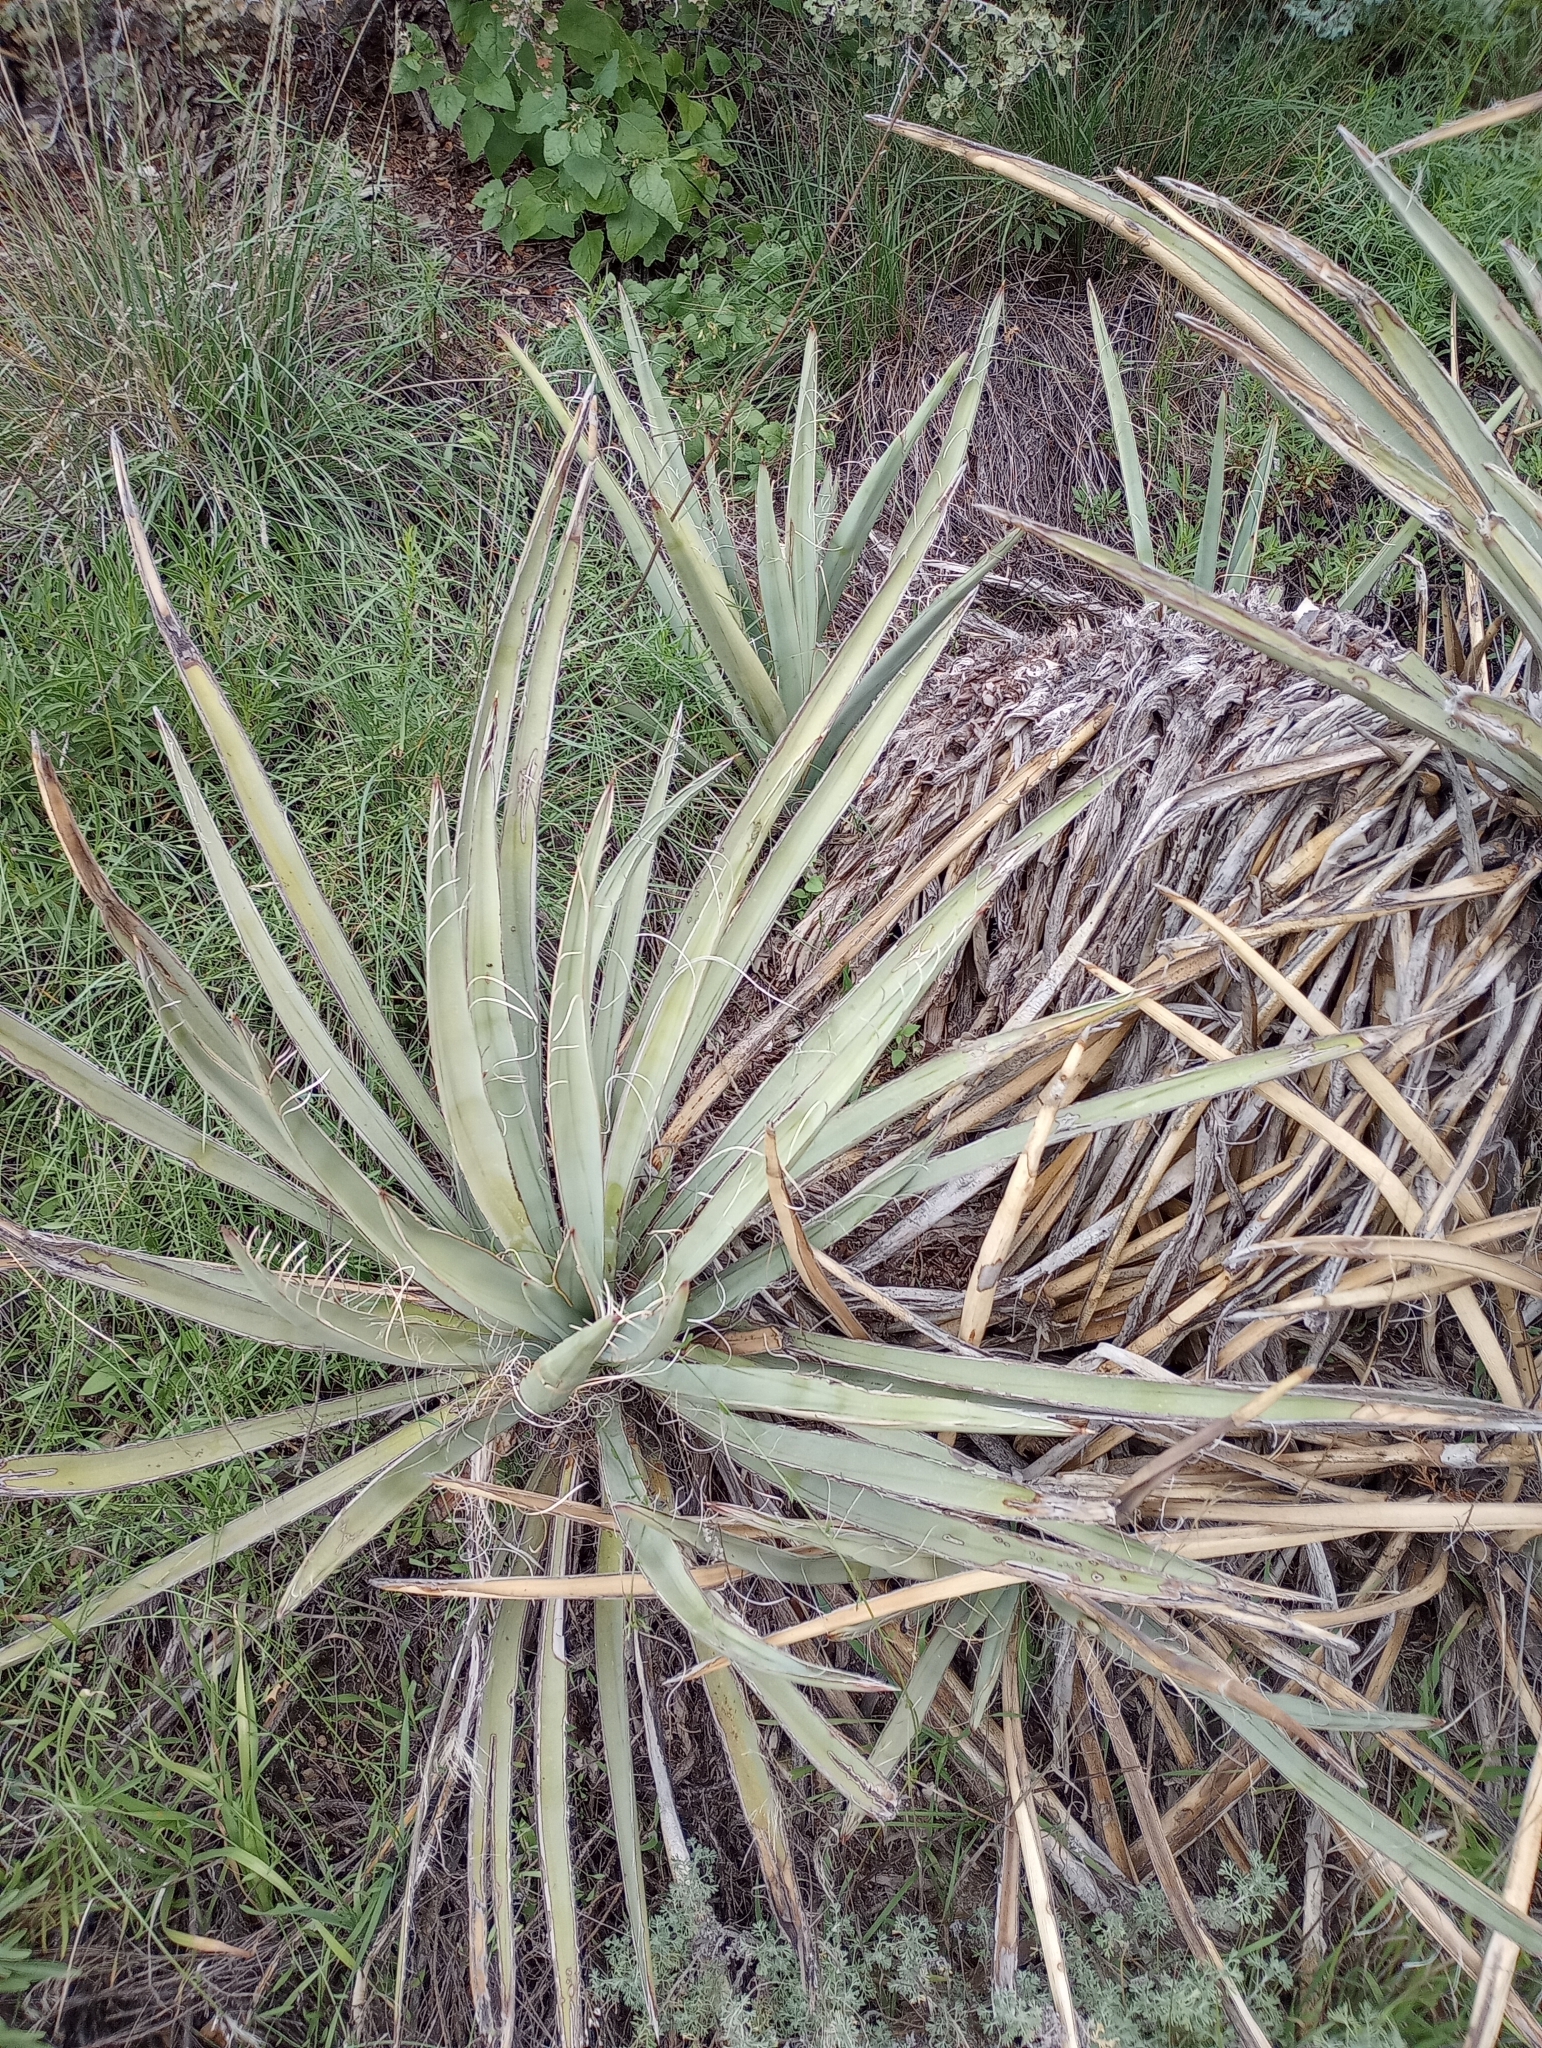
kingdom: Plantae
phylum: Tracheophyta
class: Liliopsida
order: Asparagales
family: Asparagaceae
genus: Yucca
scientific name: Yucca baccata
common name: Banana yucca
